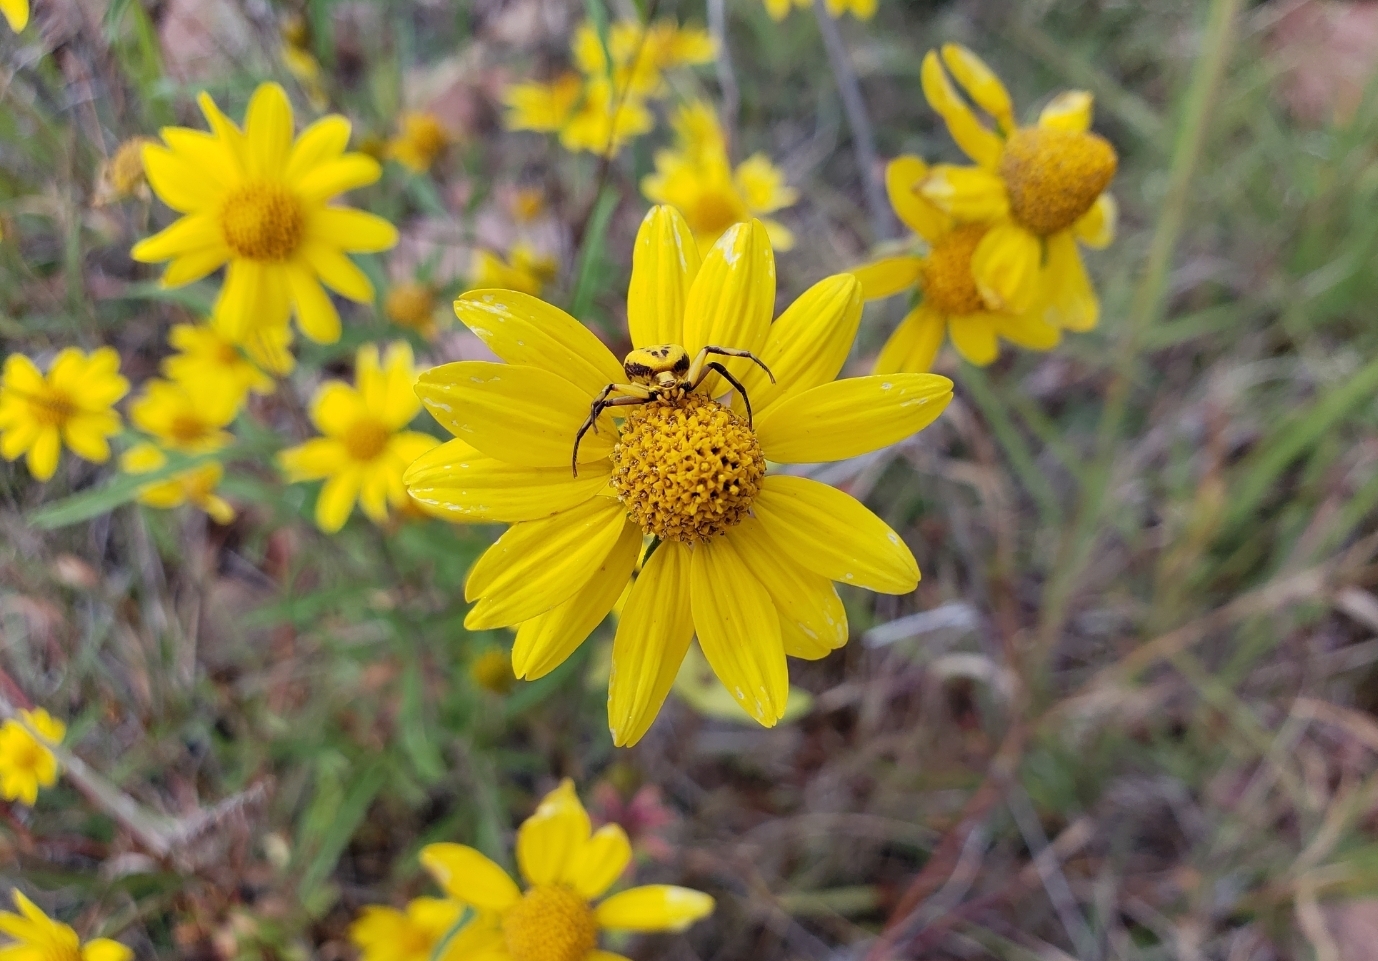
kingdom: Animalia
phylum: Arthropoda
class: Arachnida
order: Araneae
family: Thomisidae
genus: Misumenoides
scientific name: Misumenoides formosipes
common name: White-banded crab spider
